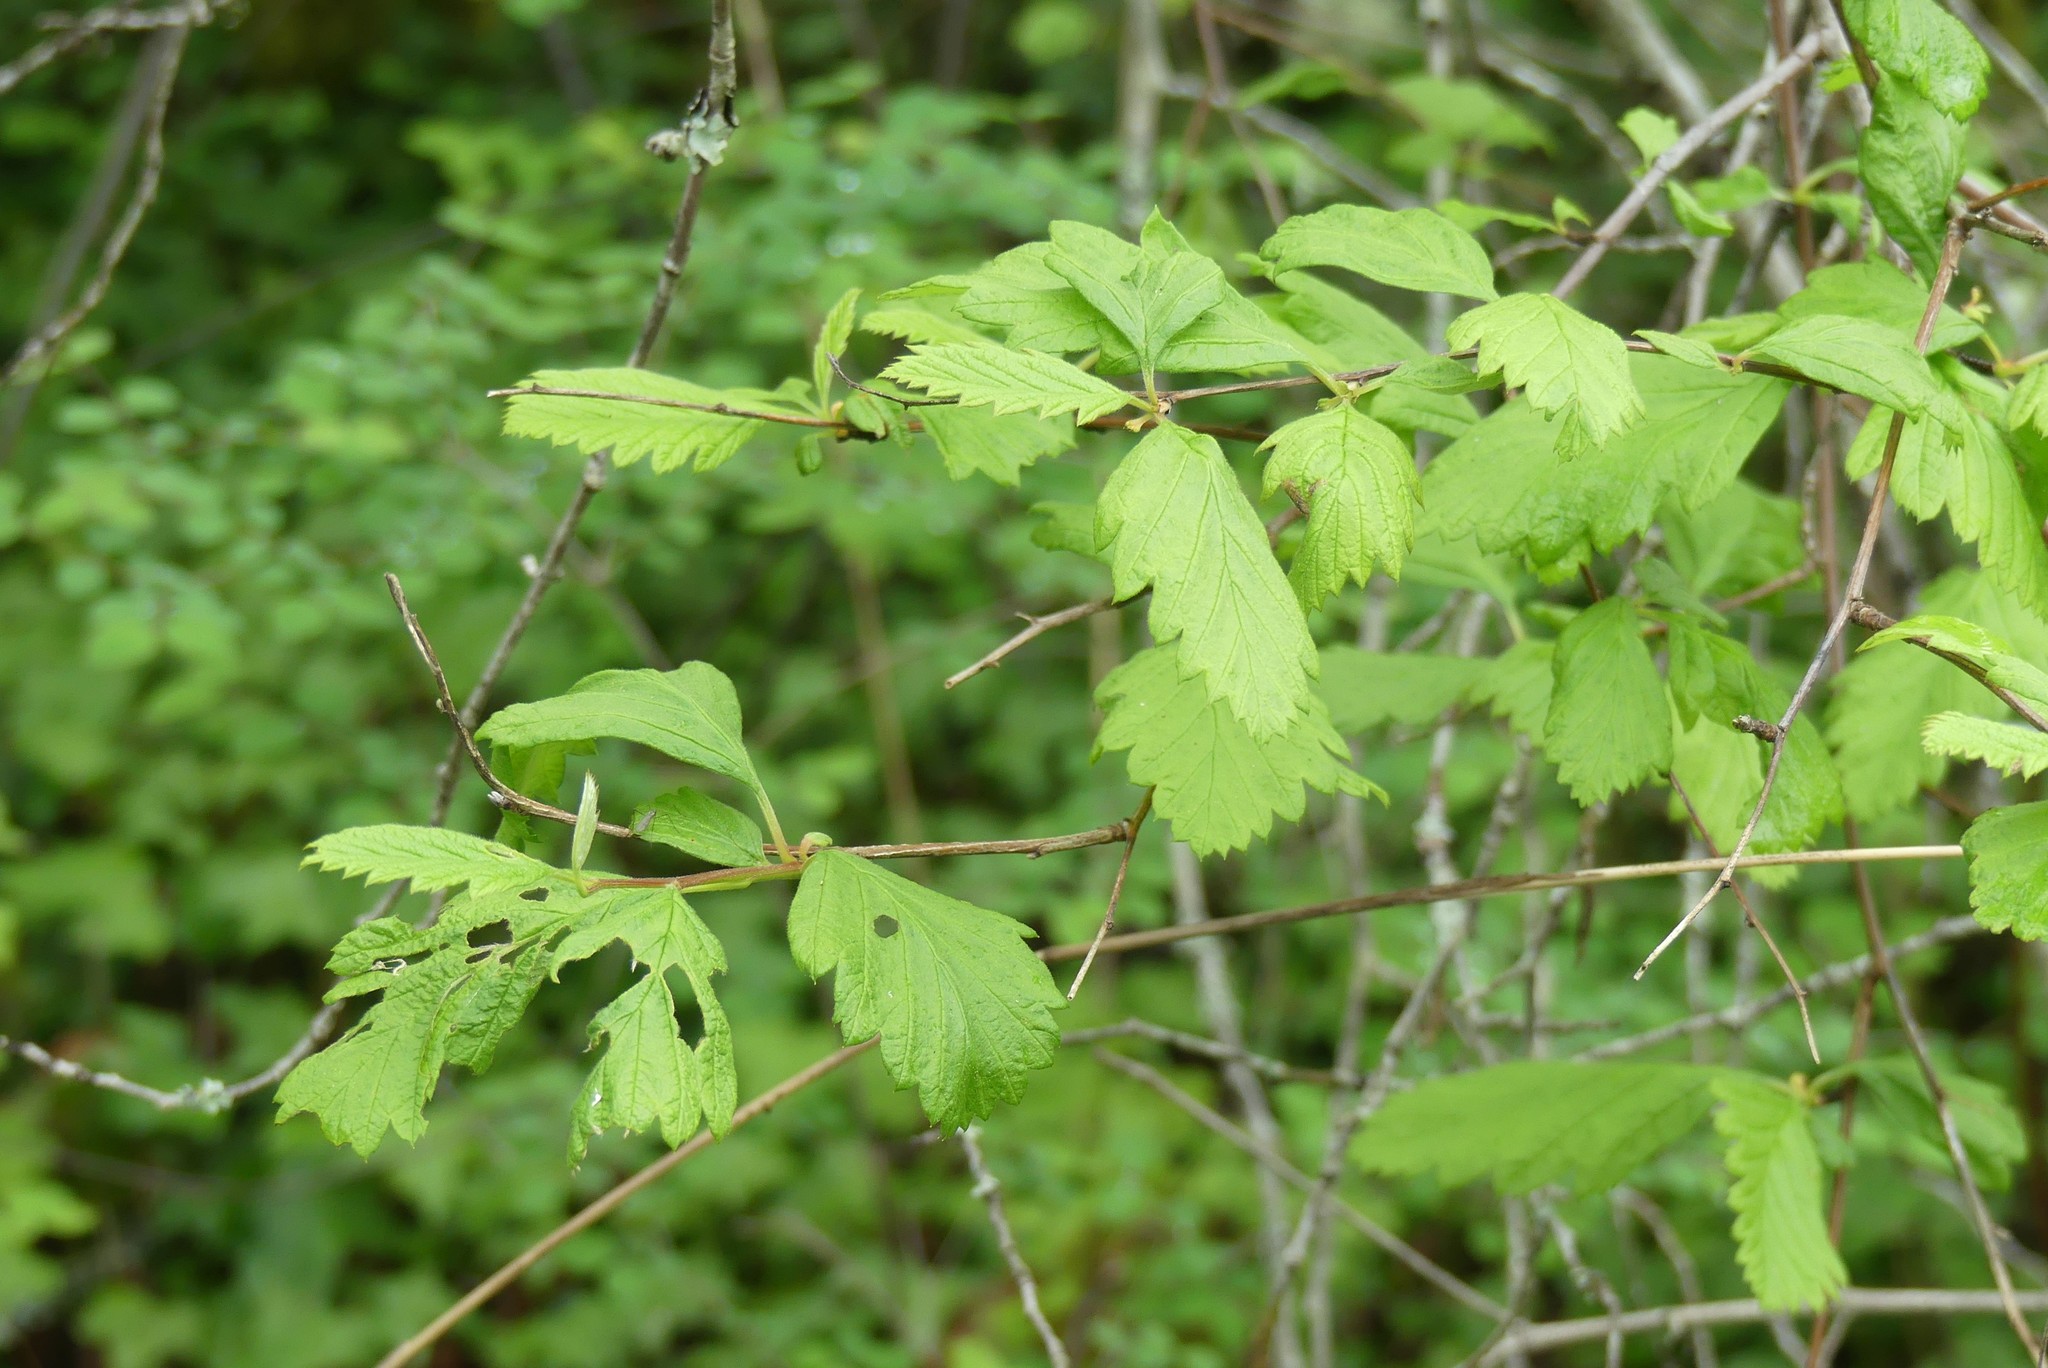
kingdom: Plantae
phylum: Tracheophyta
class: Magnoliopsida
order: Rosales
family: Rosaceae
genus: Holodiscus
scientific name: Holodiscus discolor
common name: Oceanspray
